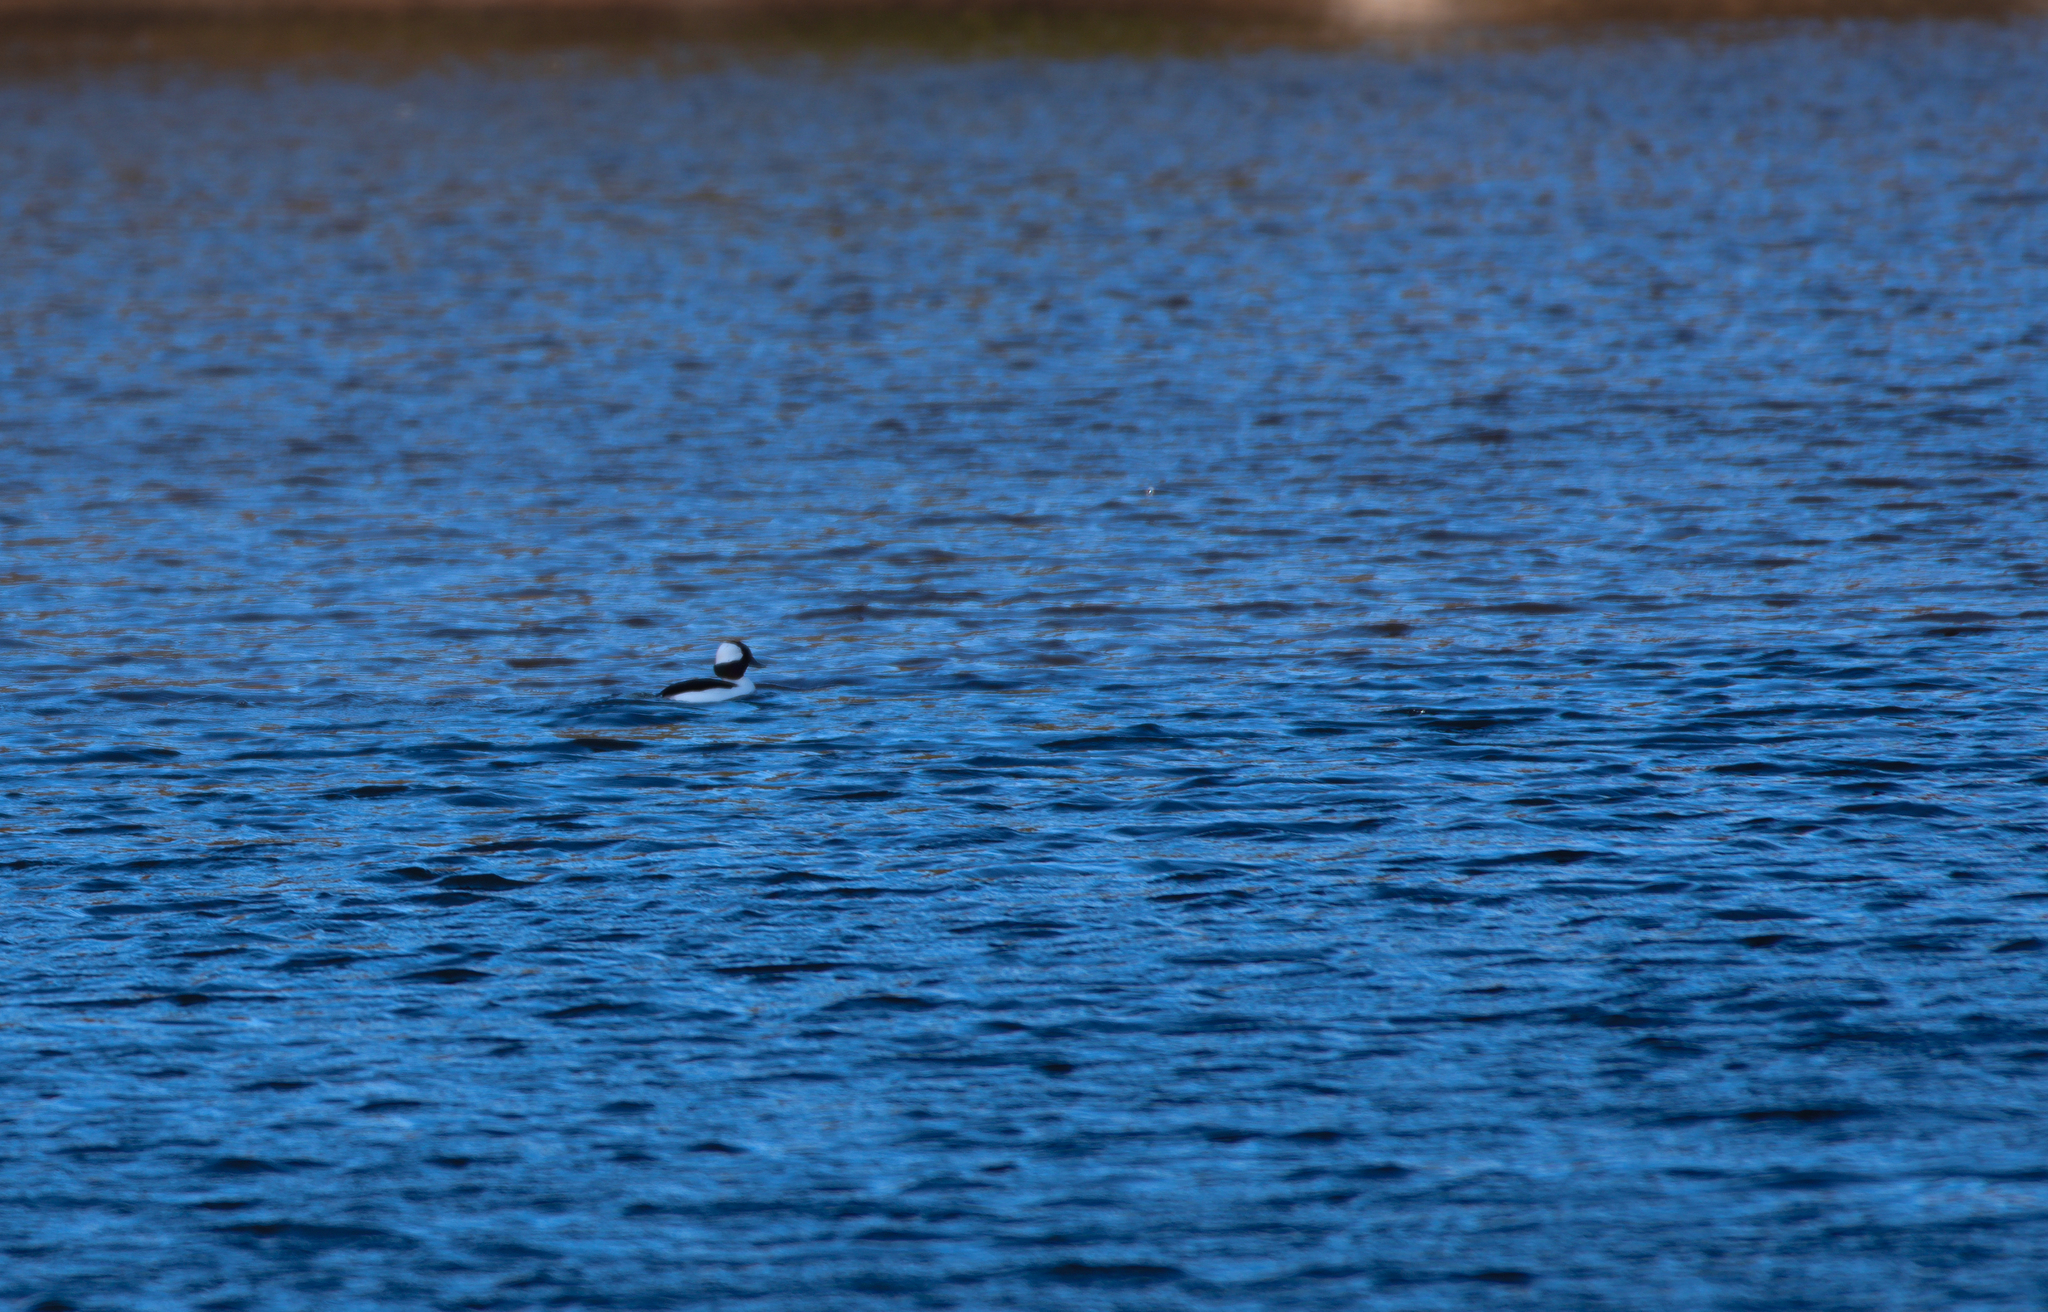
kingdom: Animalia
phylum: Chordata
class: Aves
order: Anseriformes
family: Anatidae
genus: Bucephala
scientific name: Bucephala albeola
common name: Bufflehead
